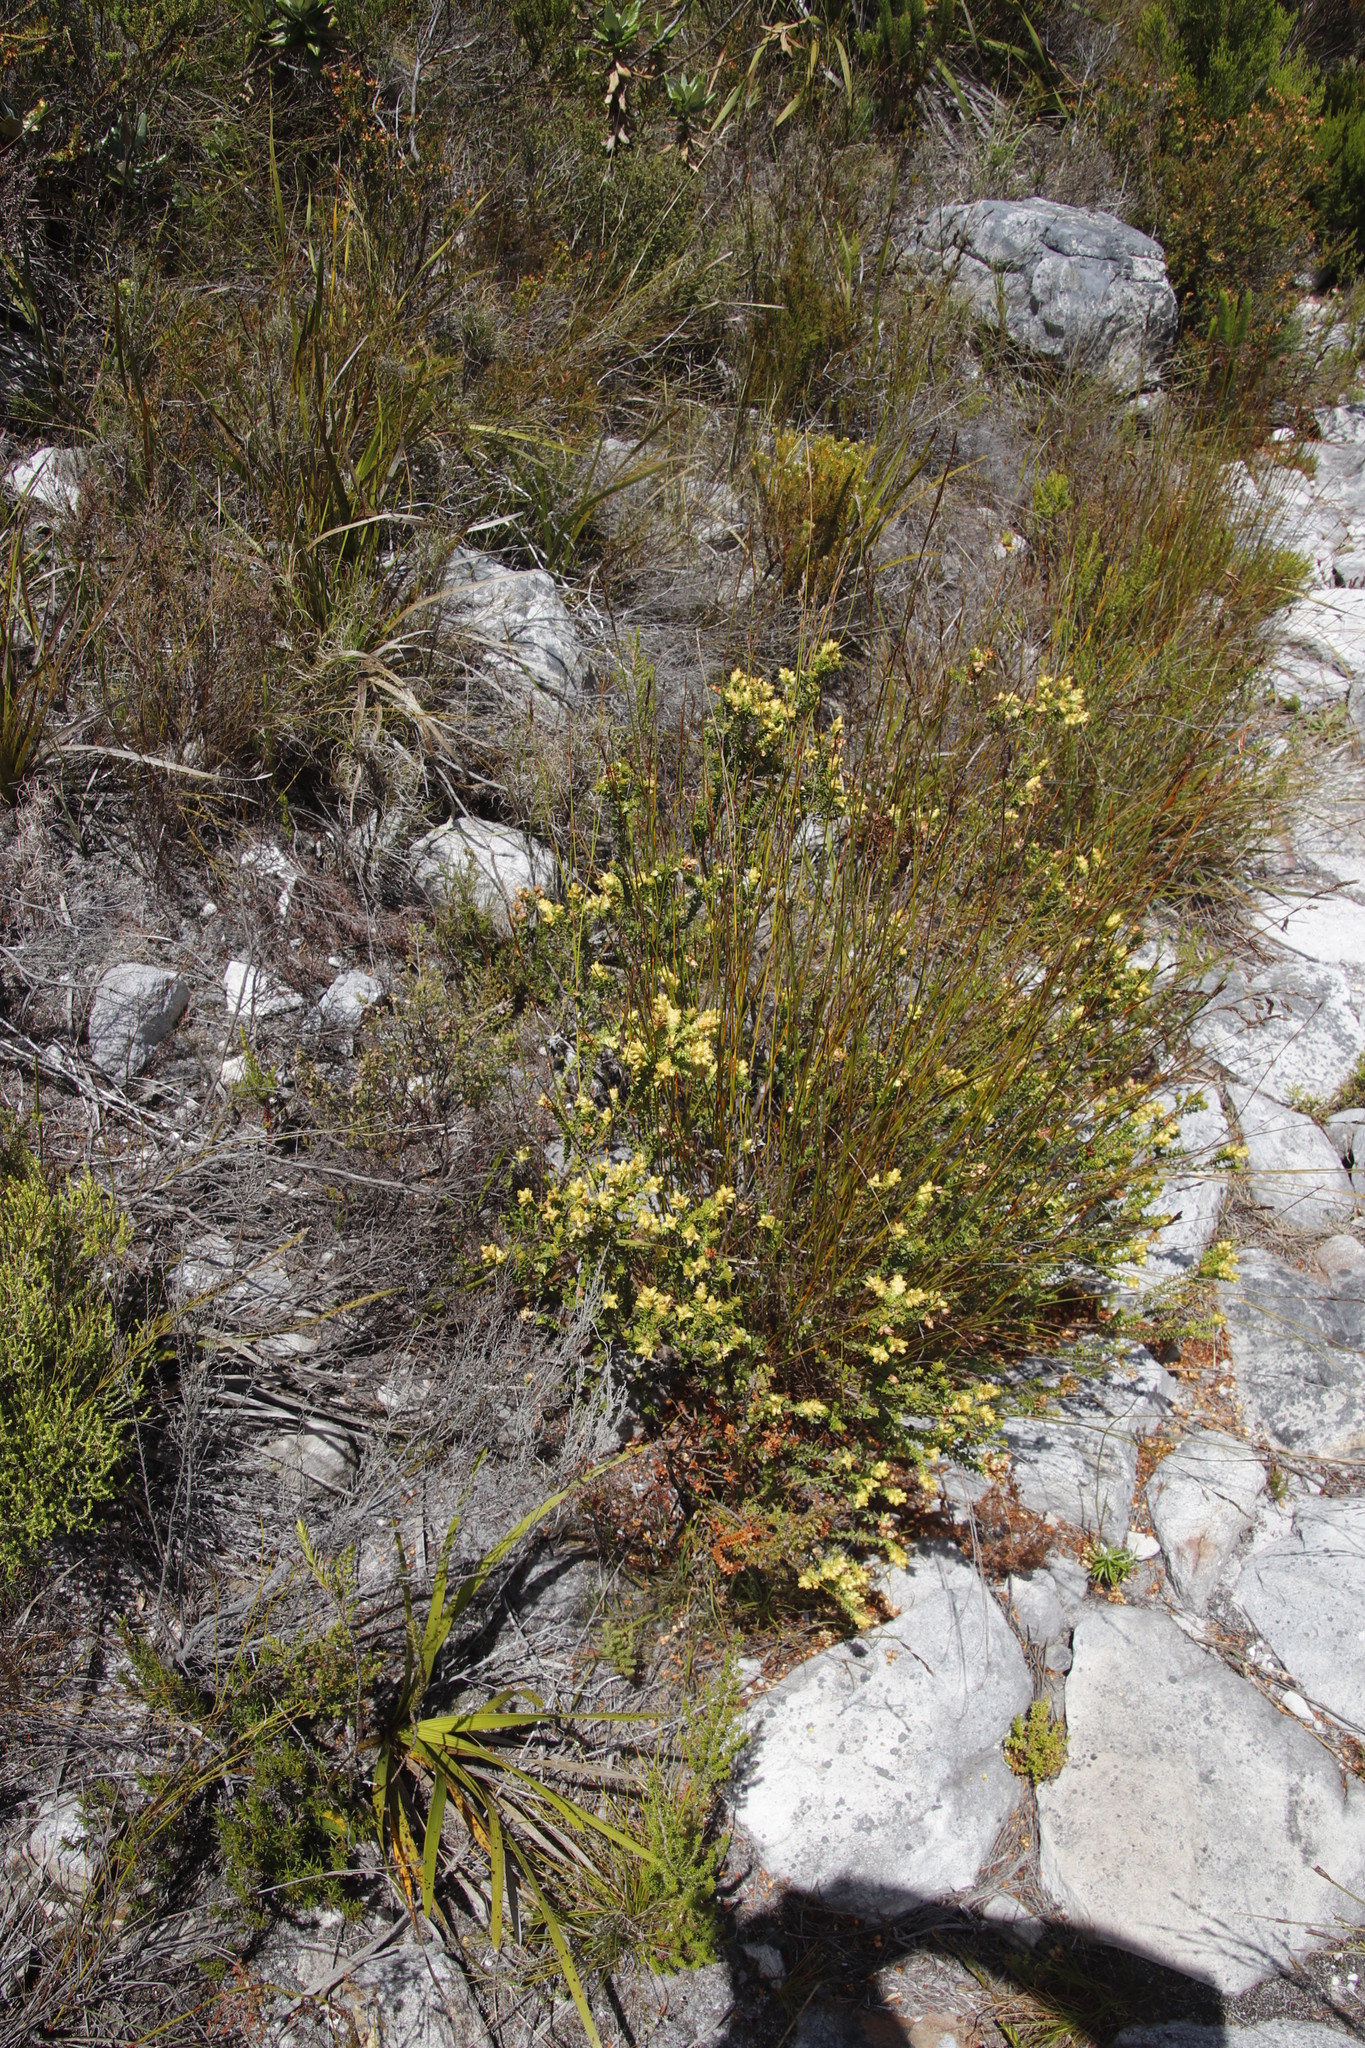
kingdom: Plantae
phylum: Tracheophyta
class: Magnoliopsida
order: Myrtales
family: Penaeaceae
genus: Penaea
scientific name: Penaea mucronata
